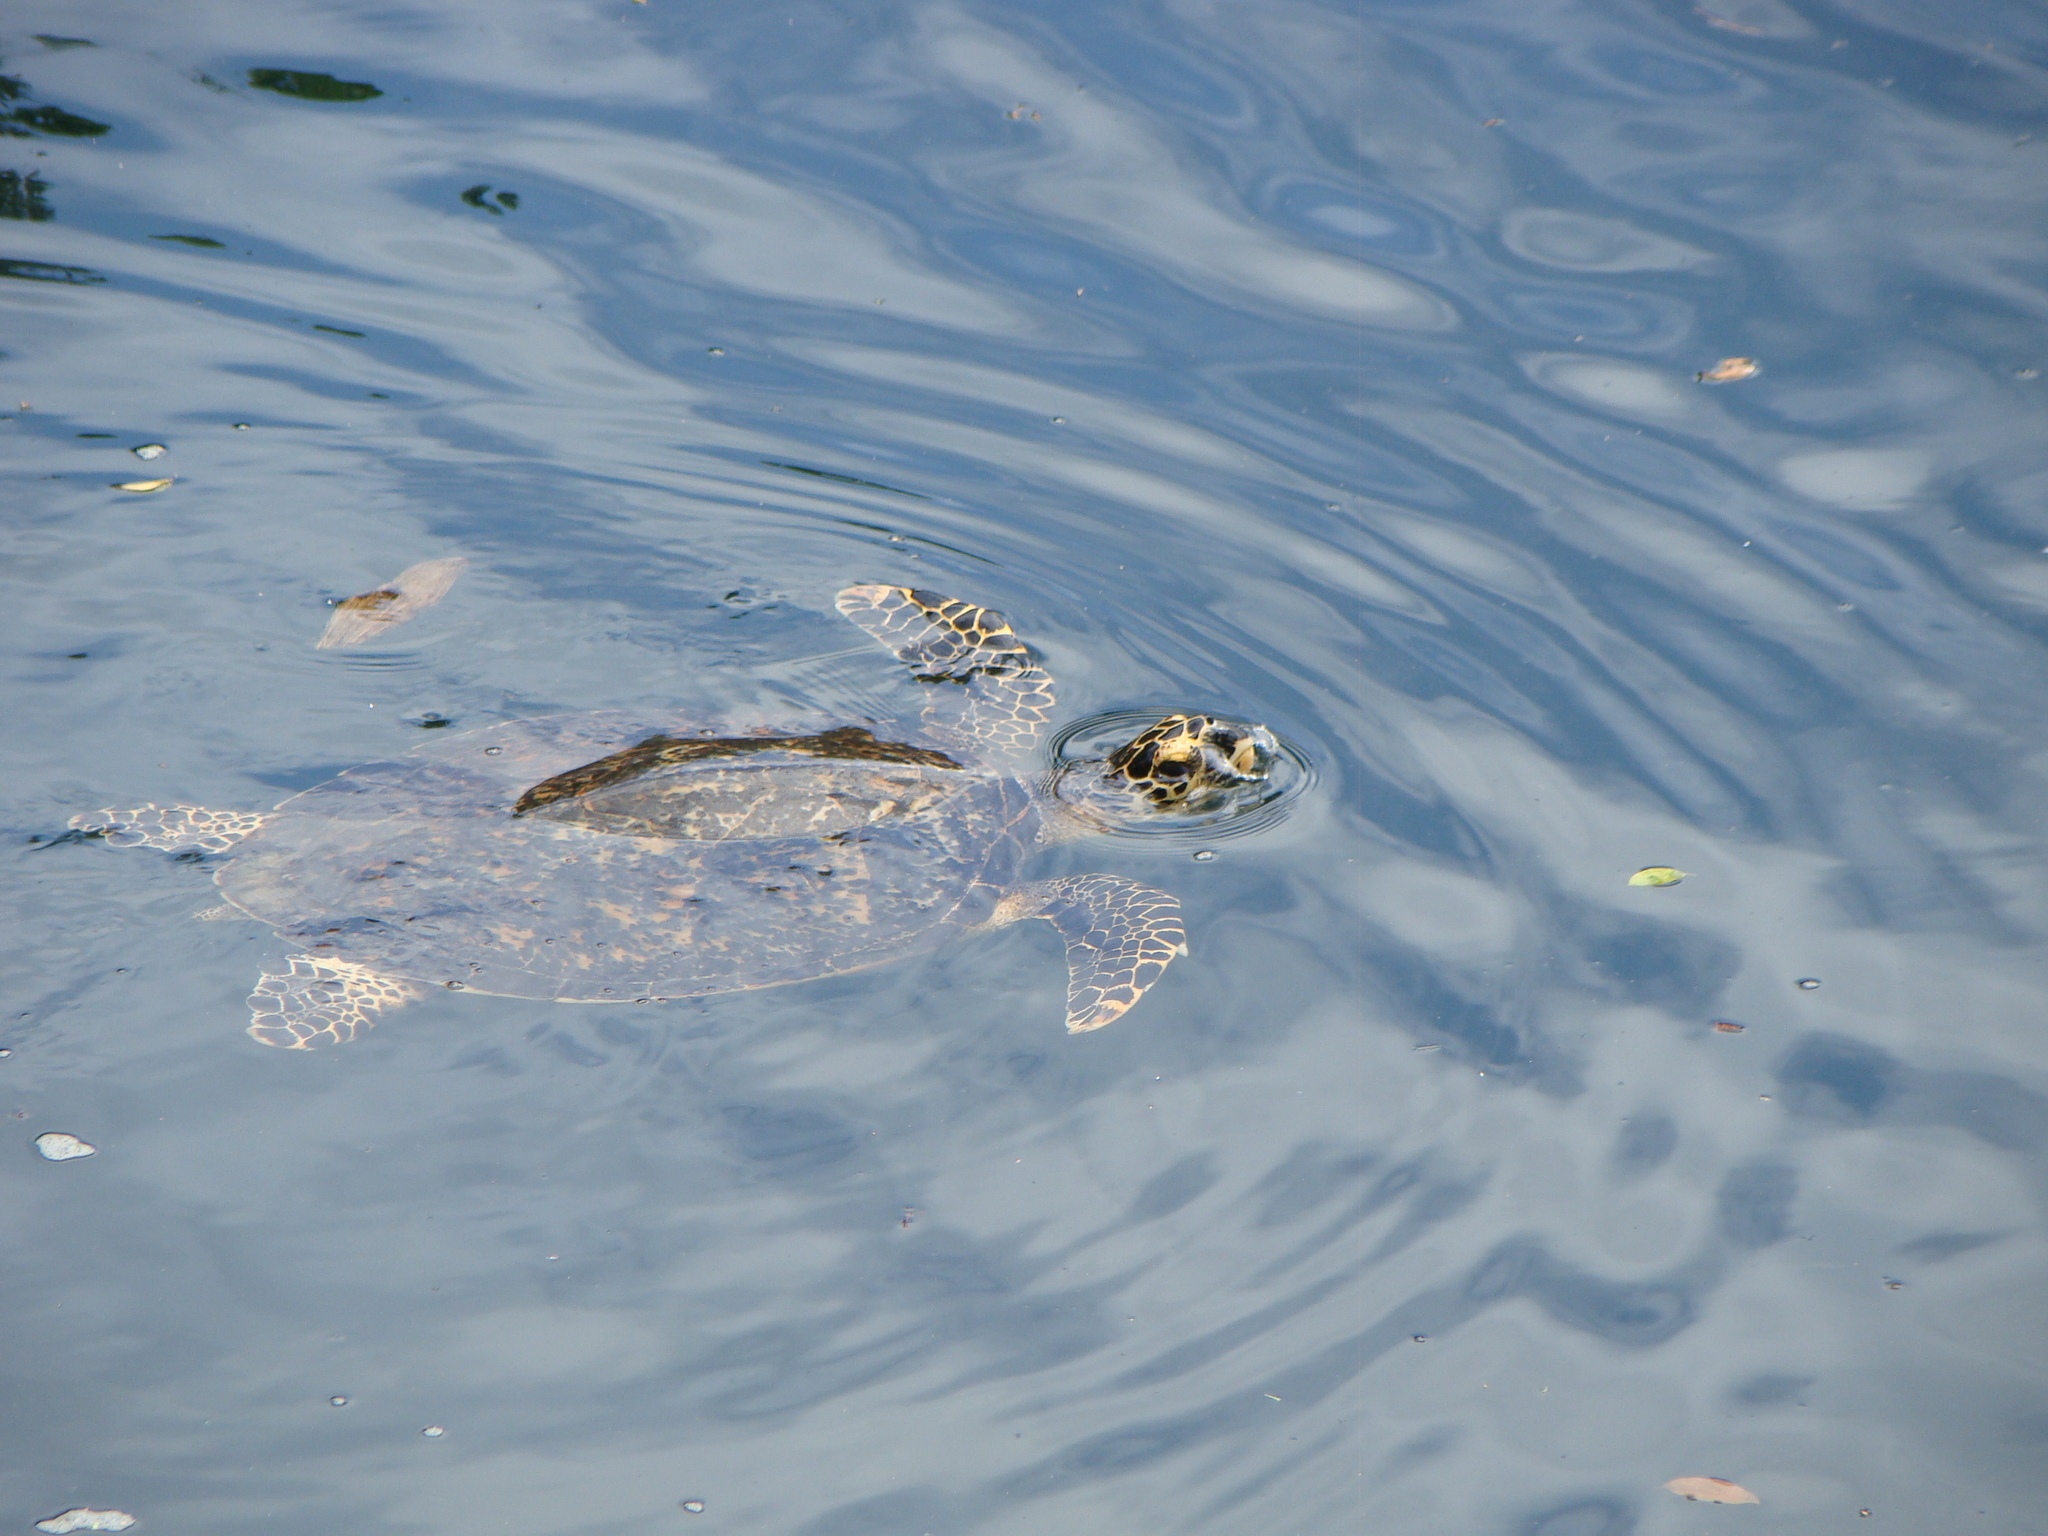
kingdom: Animalia
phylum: Chordata
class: Testudines
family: Cheloniidae
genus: Eretmochelys
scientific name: Eretmochelys imbricata
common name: Hawksbill turtle
